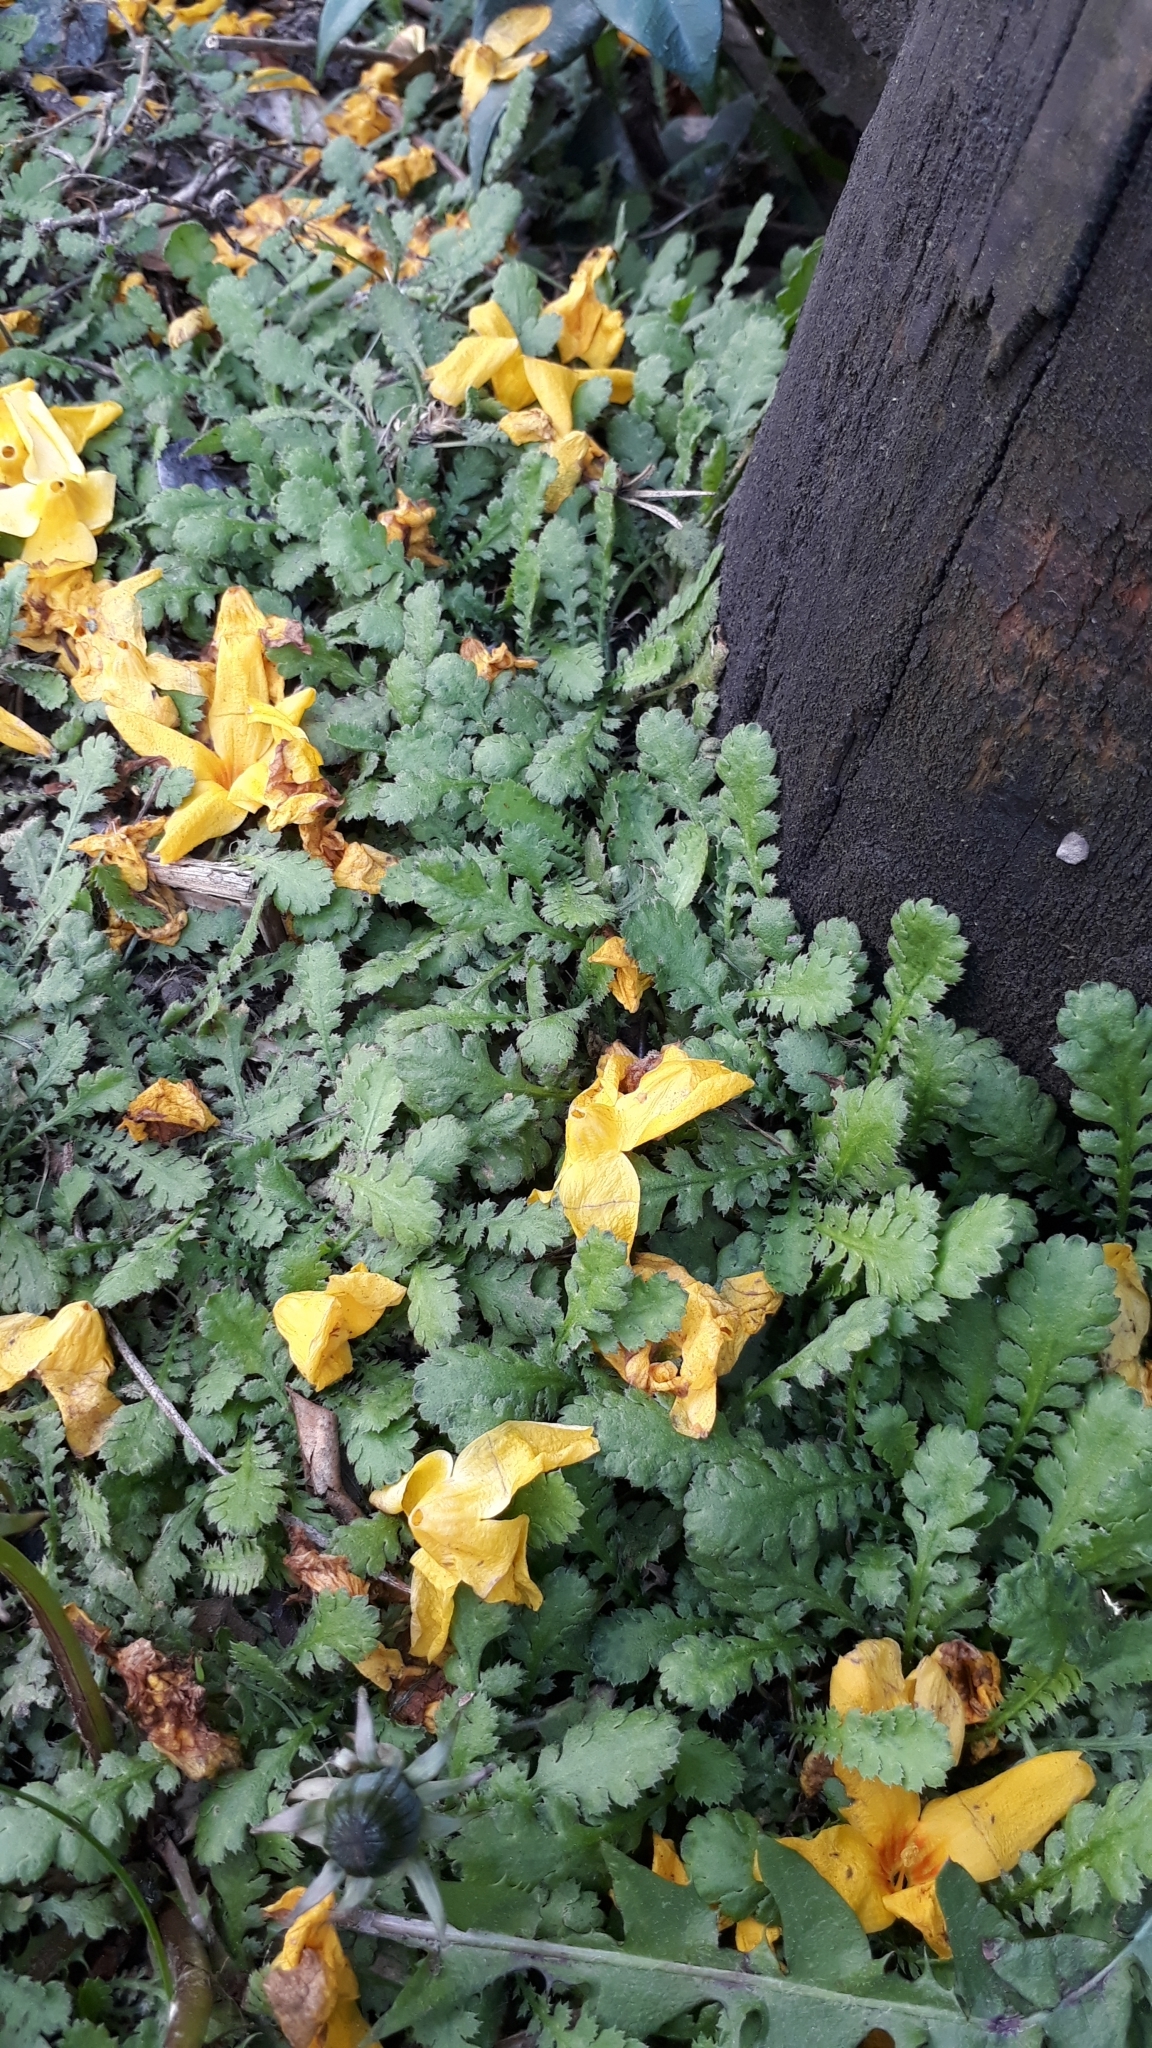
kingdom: Plantae
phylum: Tracheophyta
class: Magnoliopsida
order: Asterales
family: Asteraceae
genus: Leptinella
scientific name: Leptinella dioica
